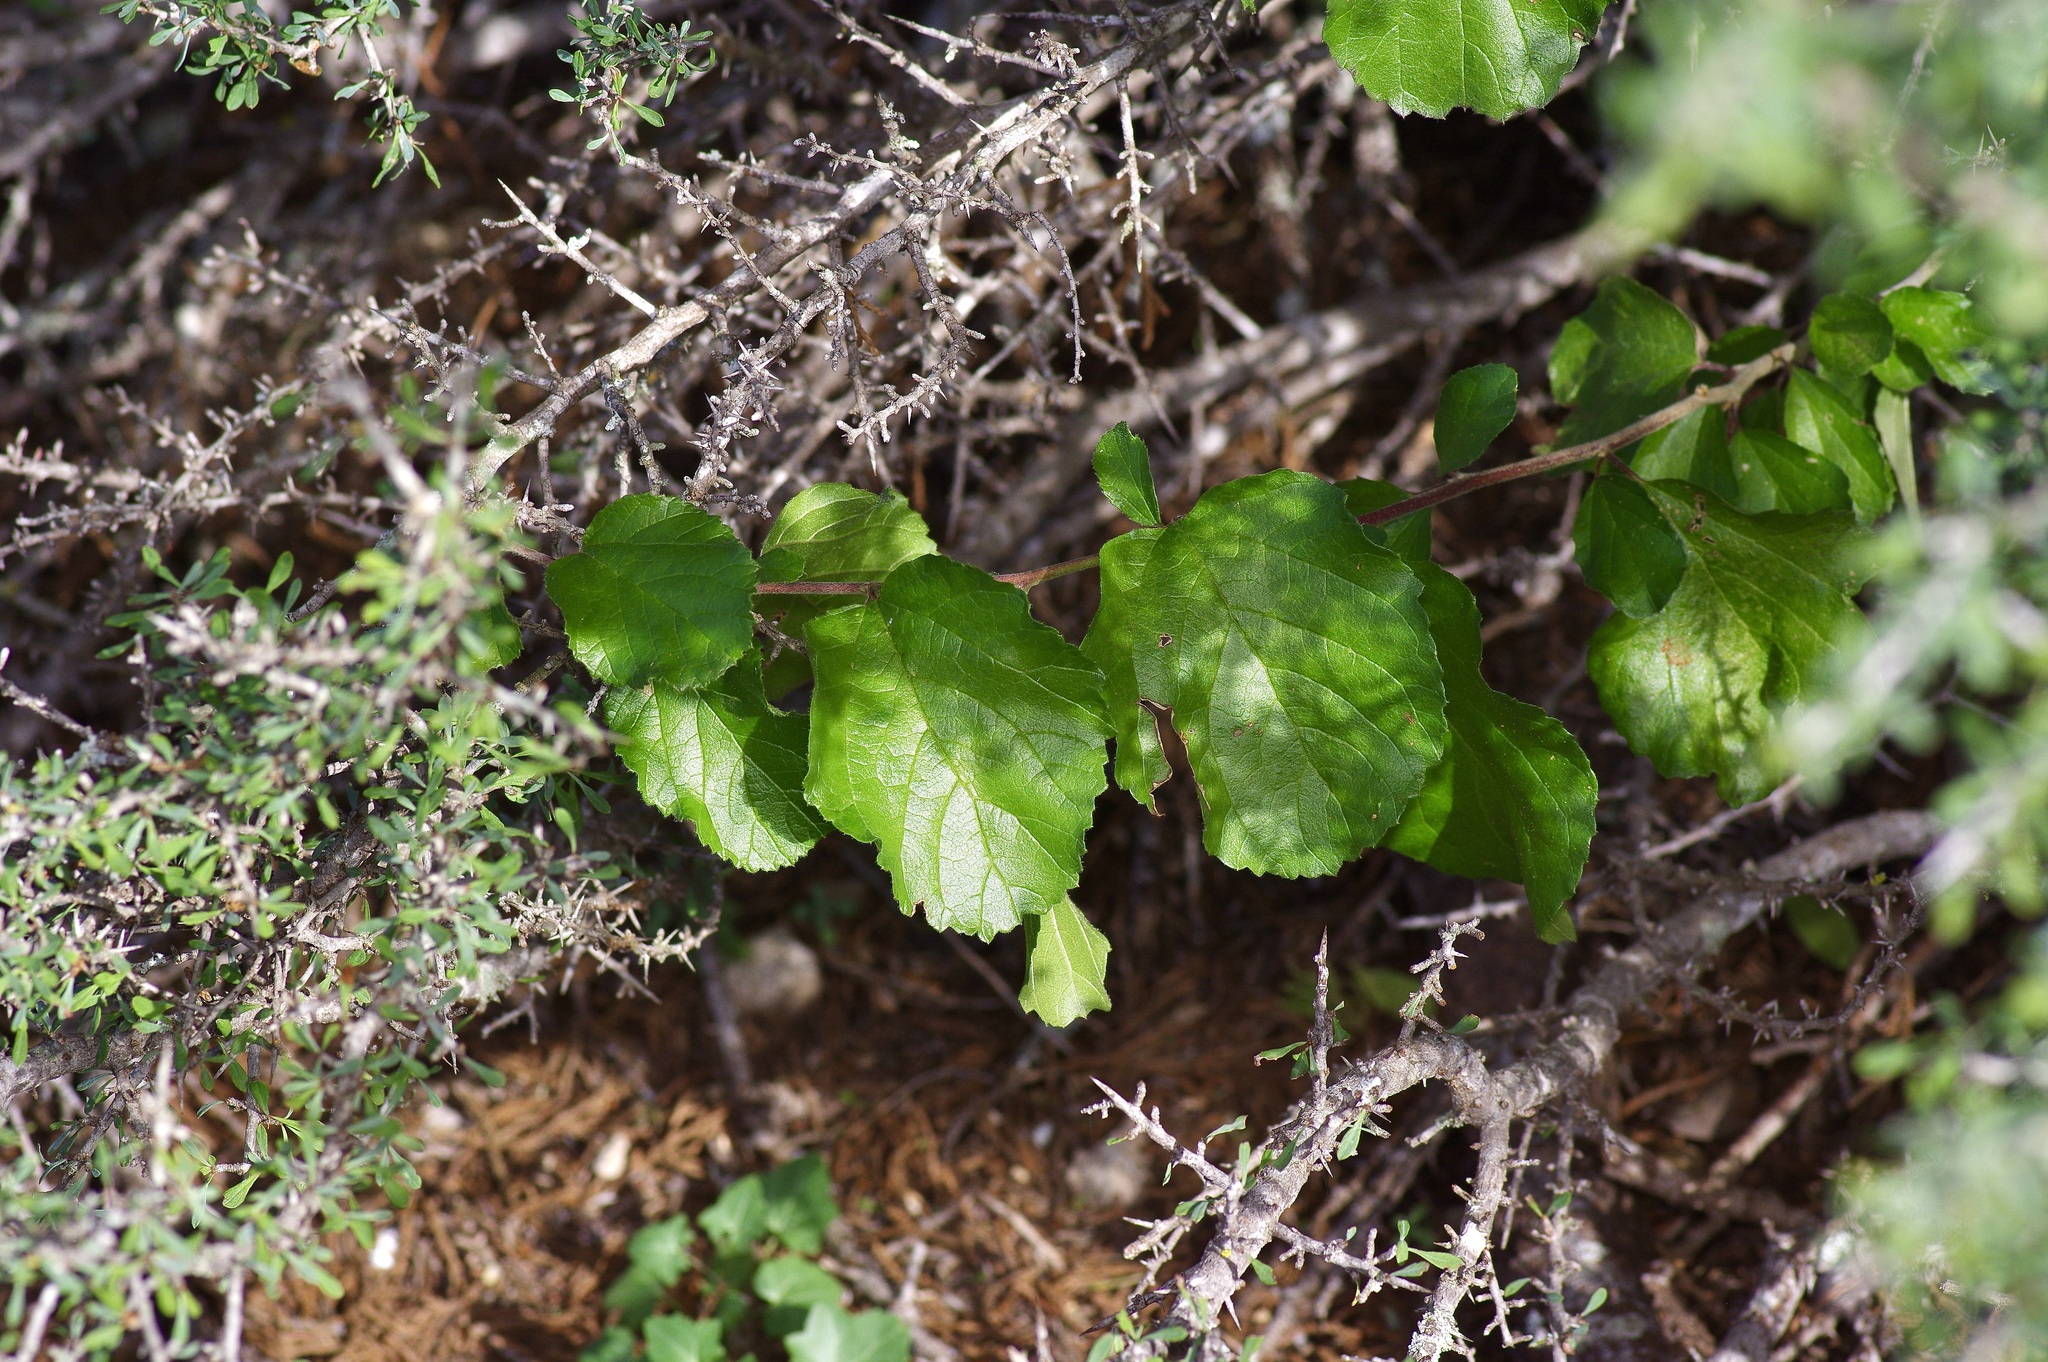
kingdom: Plantae
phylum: Tracheophyta
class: Magnoliopsida
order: Rosales
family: Rhamnaceae
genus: Colubrina
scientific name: Colubrina texensis
